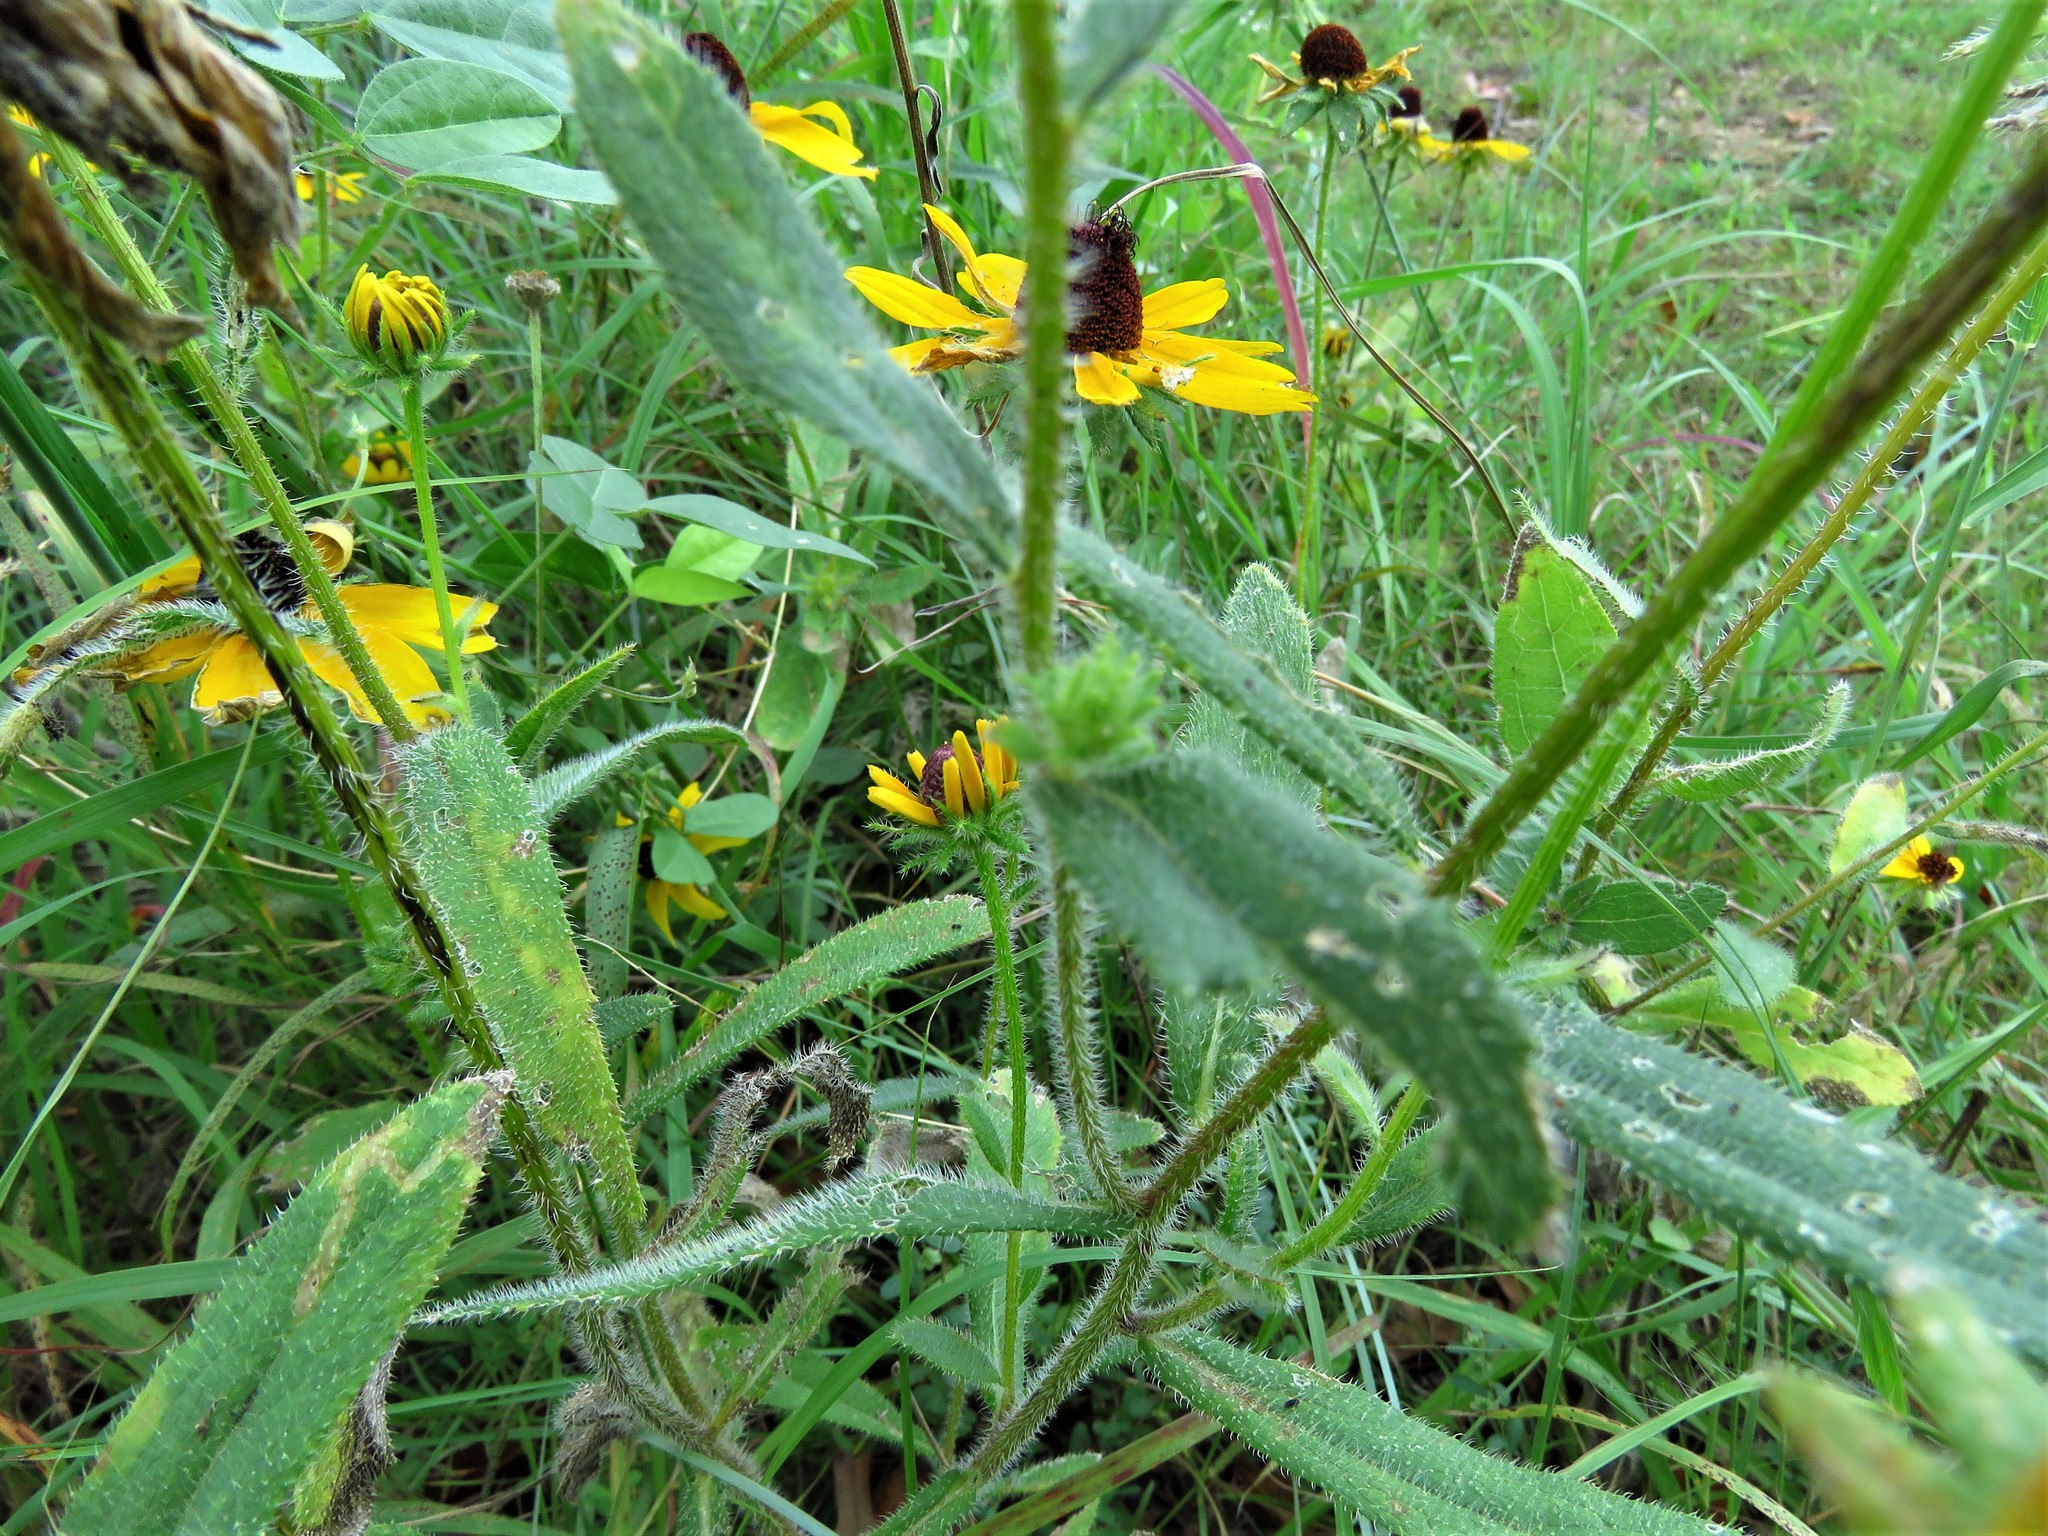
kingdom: Plantae
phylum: Tracheophyta
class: Magnoliopsida
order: Asterales
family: Asteraceae
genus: Rudbeckia
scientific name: Rudbeckia hirta
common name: Black-eyed-susan
